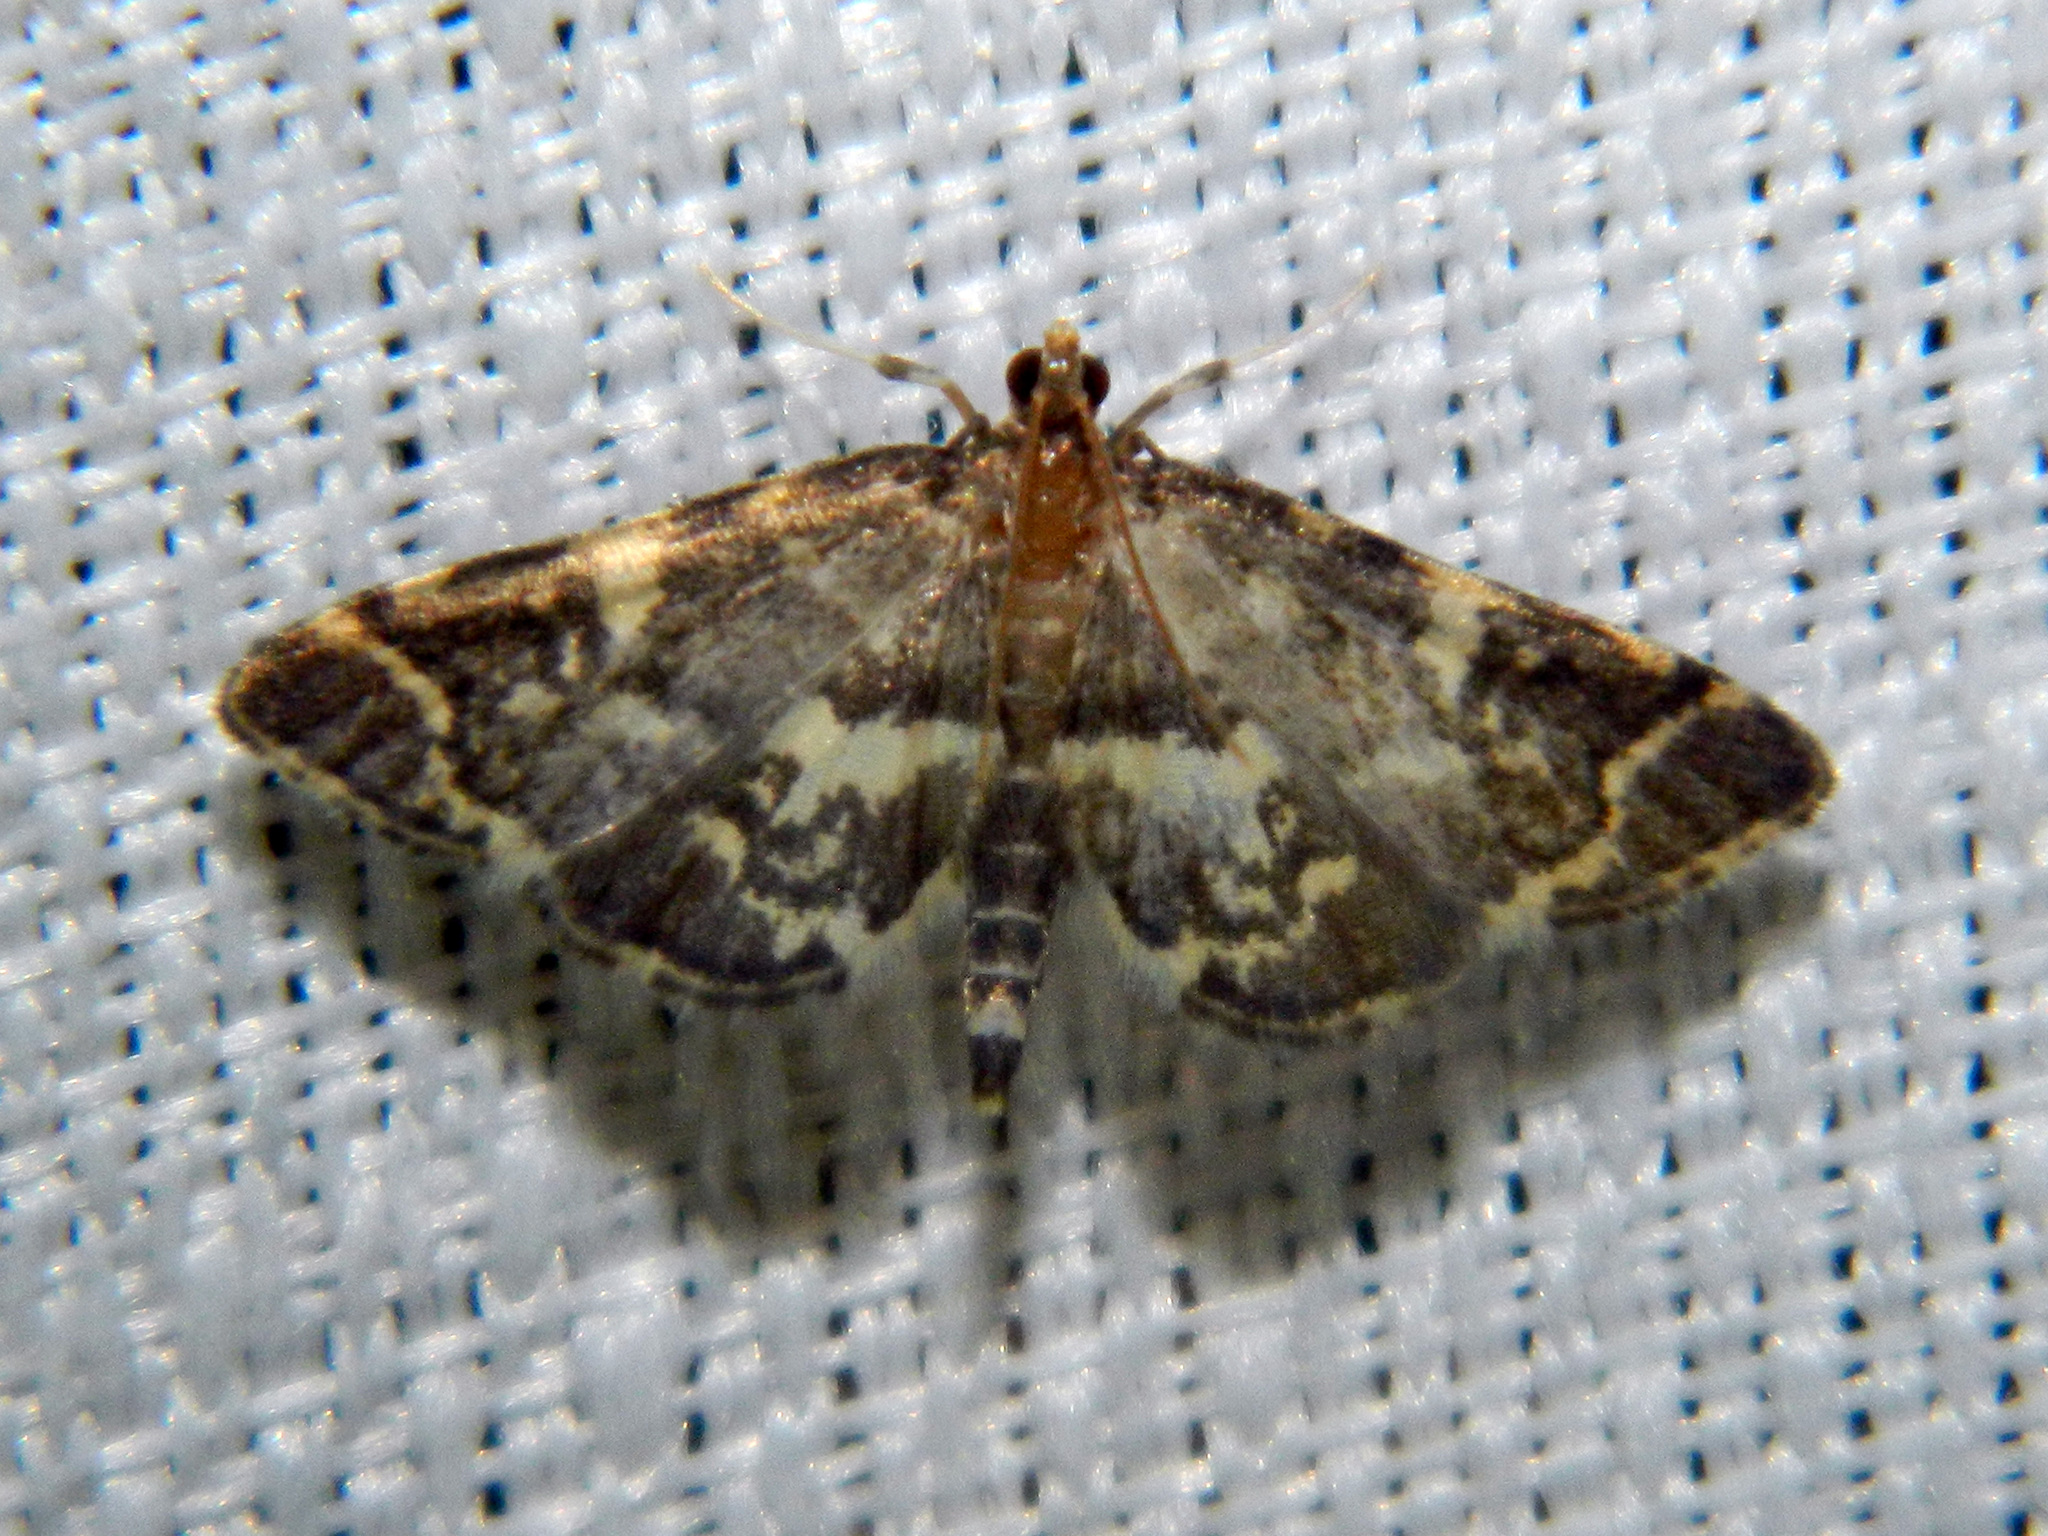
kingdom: Animalia
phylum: Arthropoda
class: Insecta
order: Lepidoptera
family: Crambidae
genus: Anageshna
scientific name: Anageshna primordialis
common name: Yellow-spotted webworm moth
